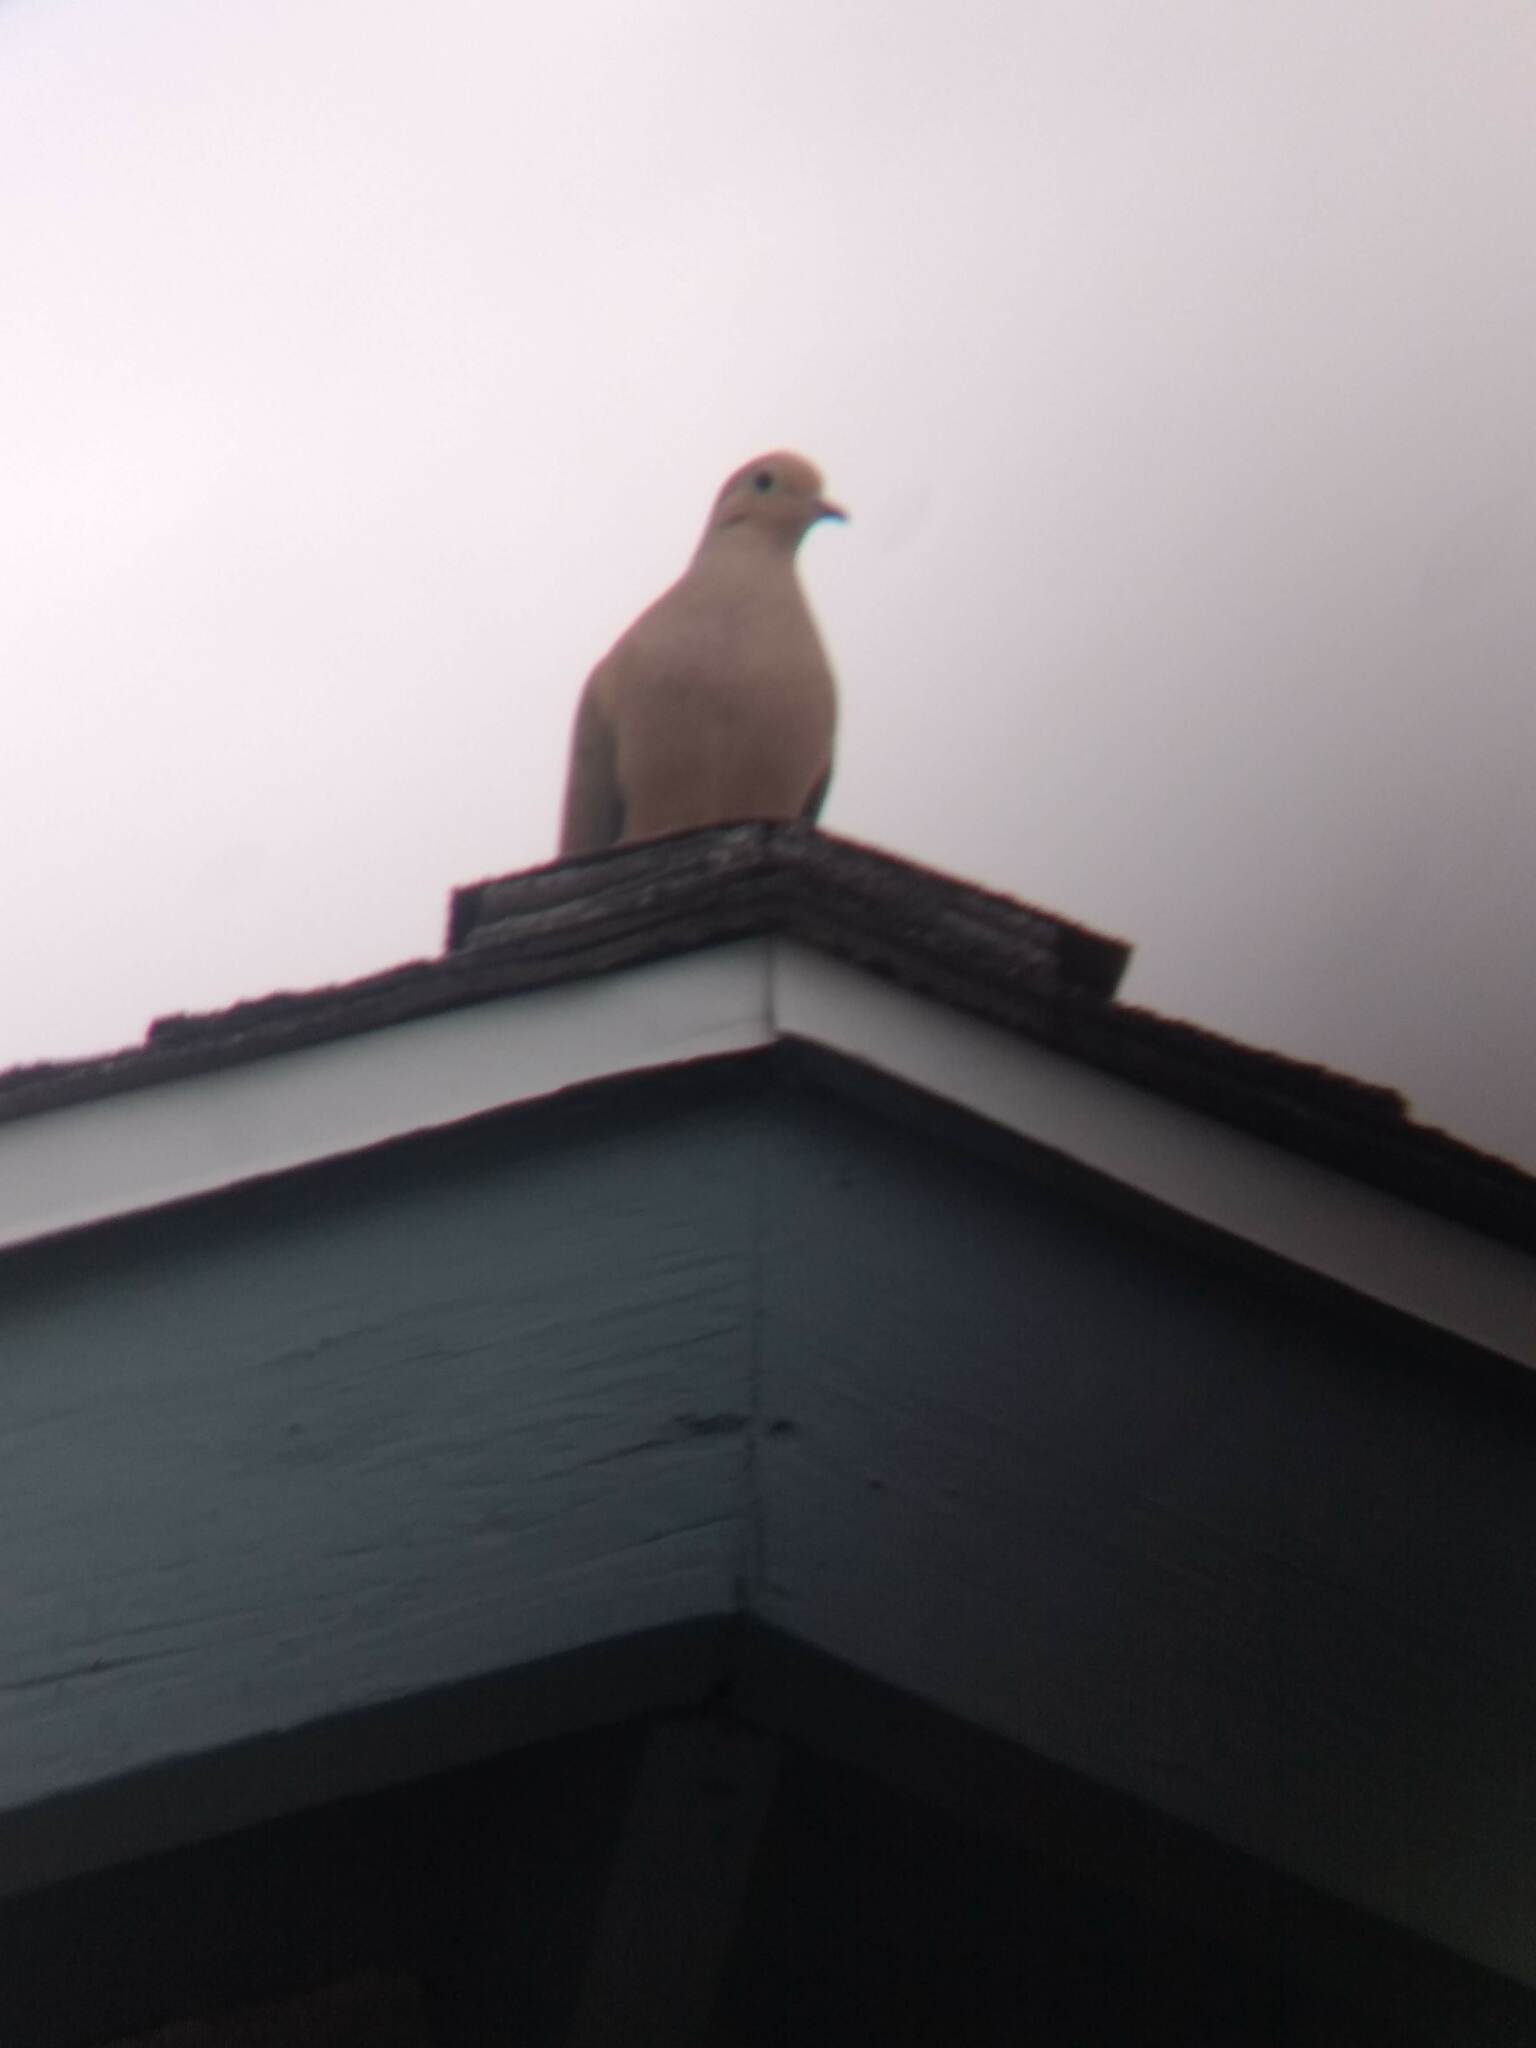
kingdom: Animalia
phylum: Chordata
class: Aves
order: Columbiformes
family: Columbidae
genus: Zenaida
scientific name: Zenaida macroura
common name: Mourning dove
